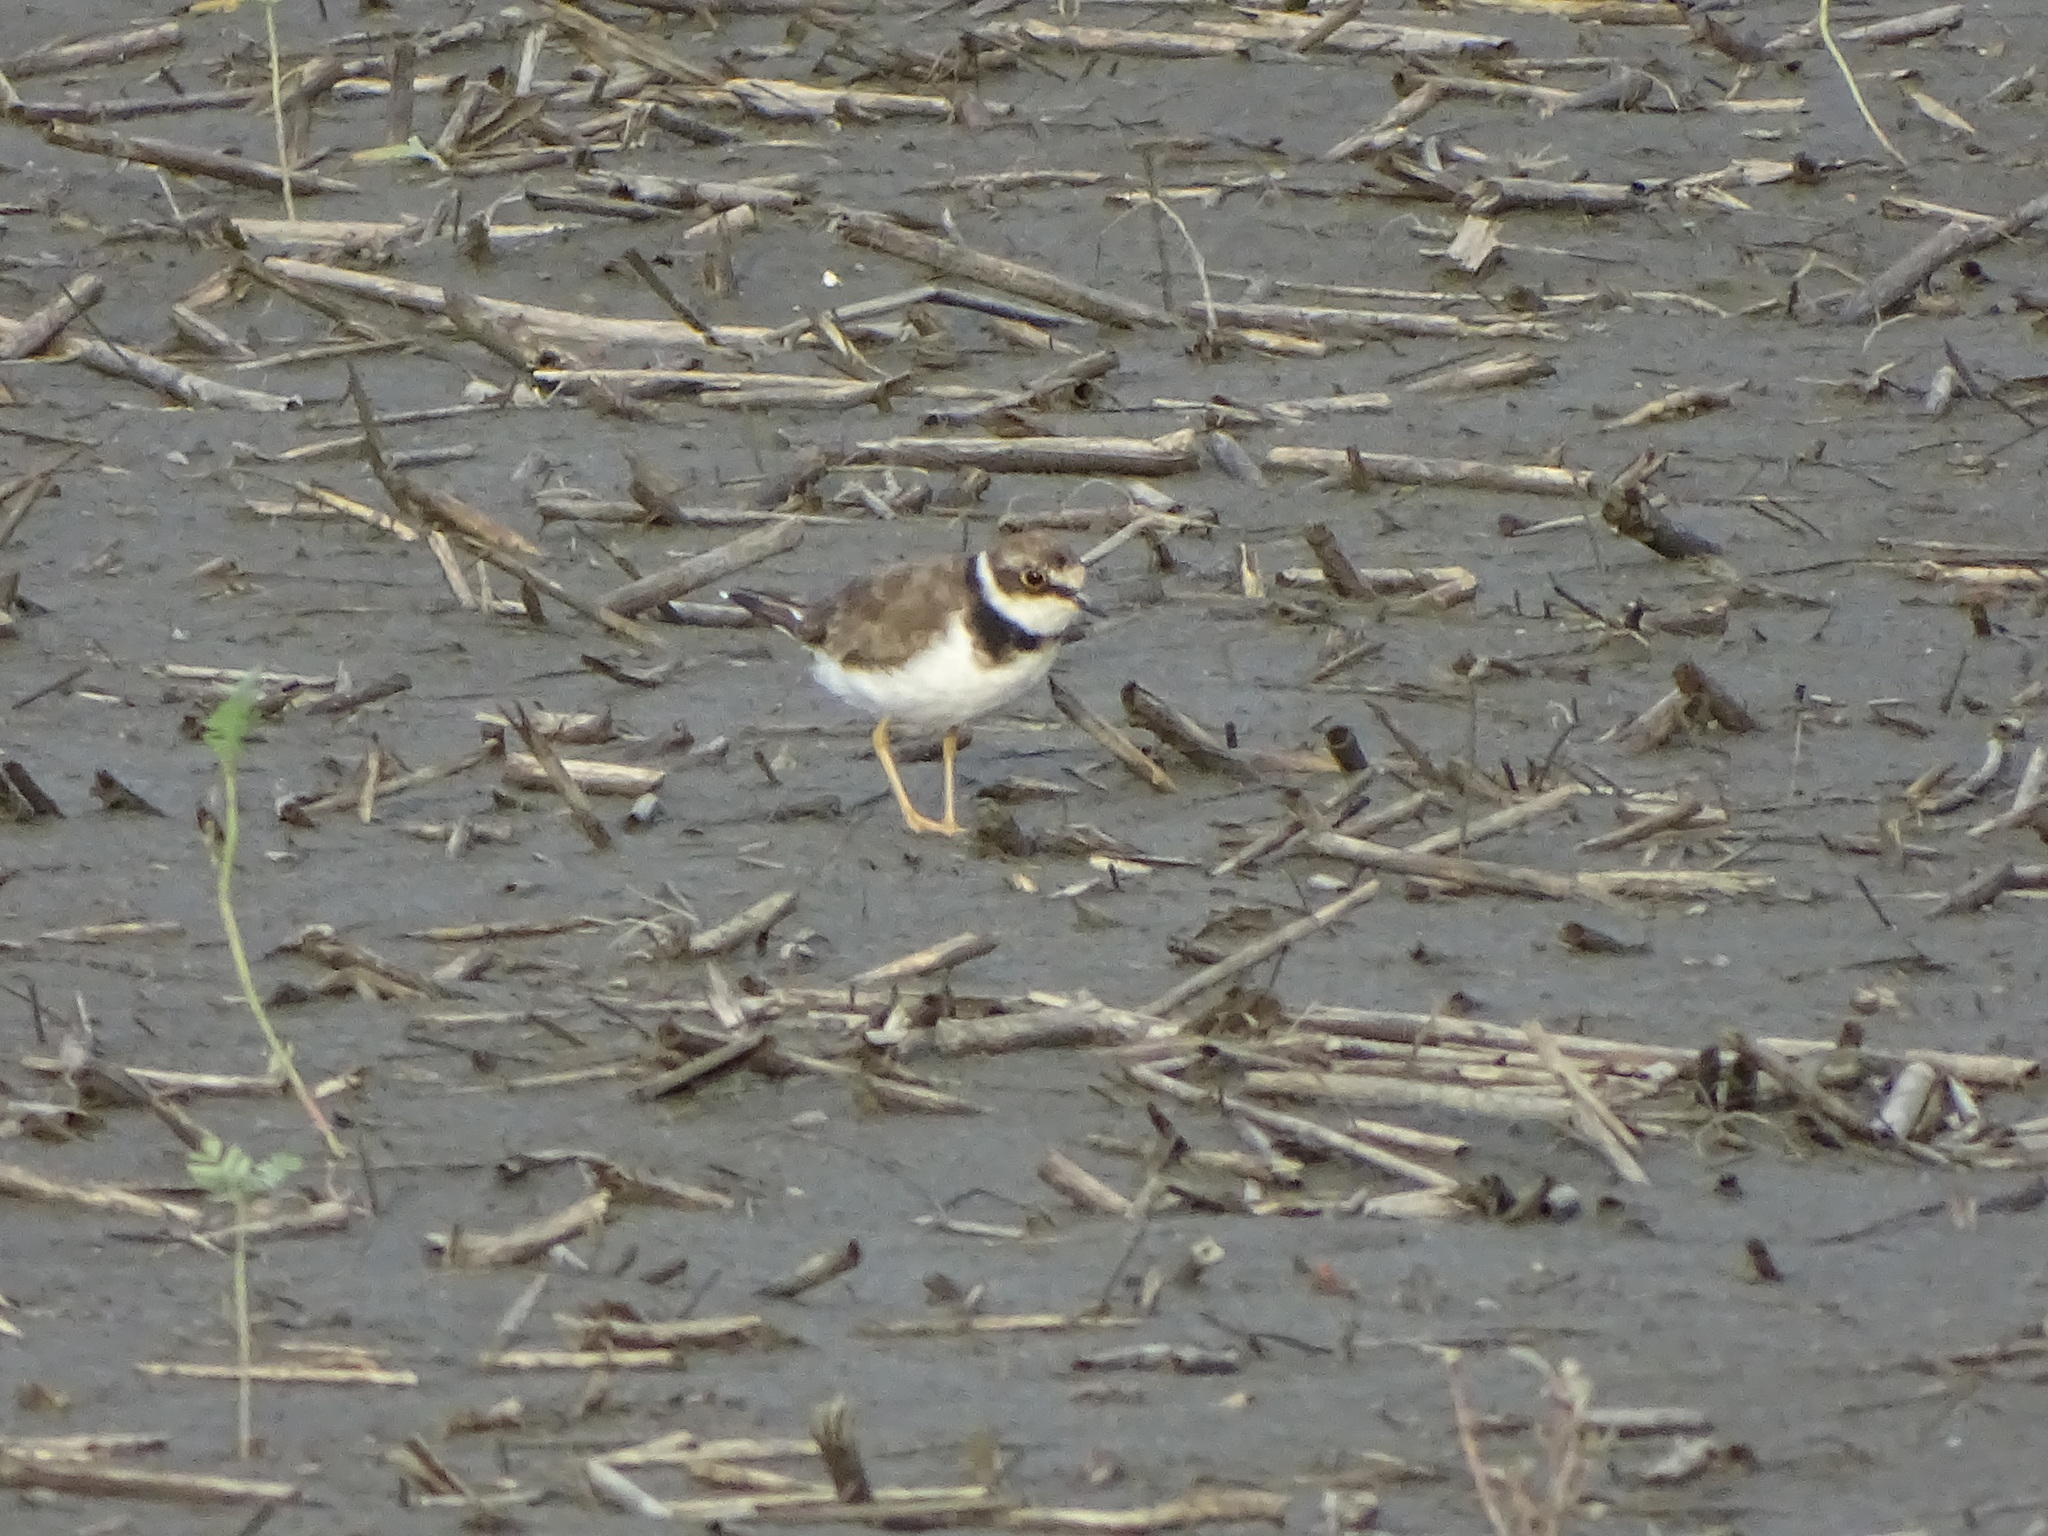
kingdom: Animalia
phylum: Chordata
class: Aves
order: Charadriiformes
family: Charadriidae
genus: Charadrius
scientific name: Charadrius dubius
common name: Little ringed plover
